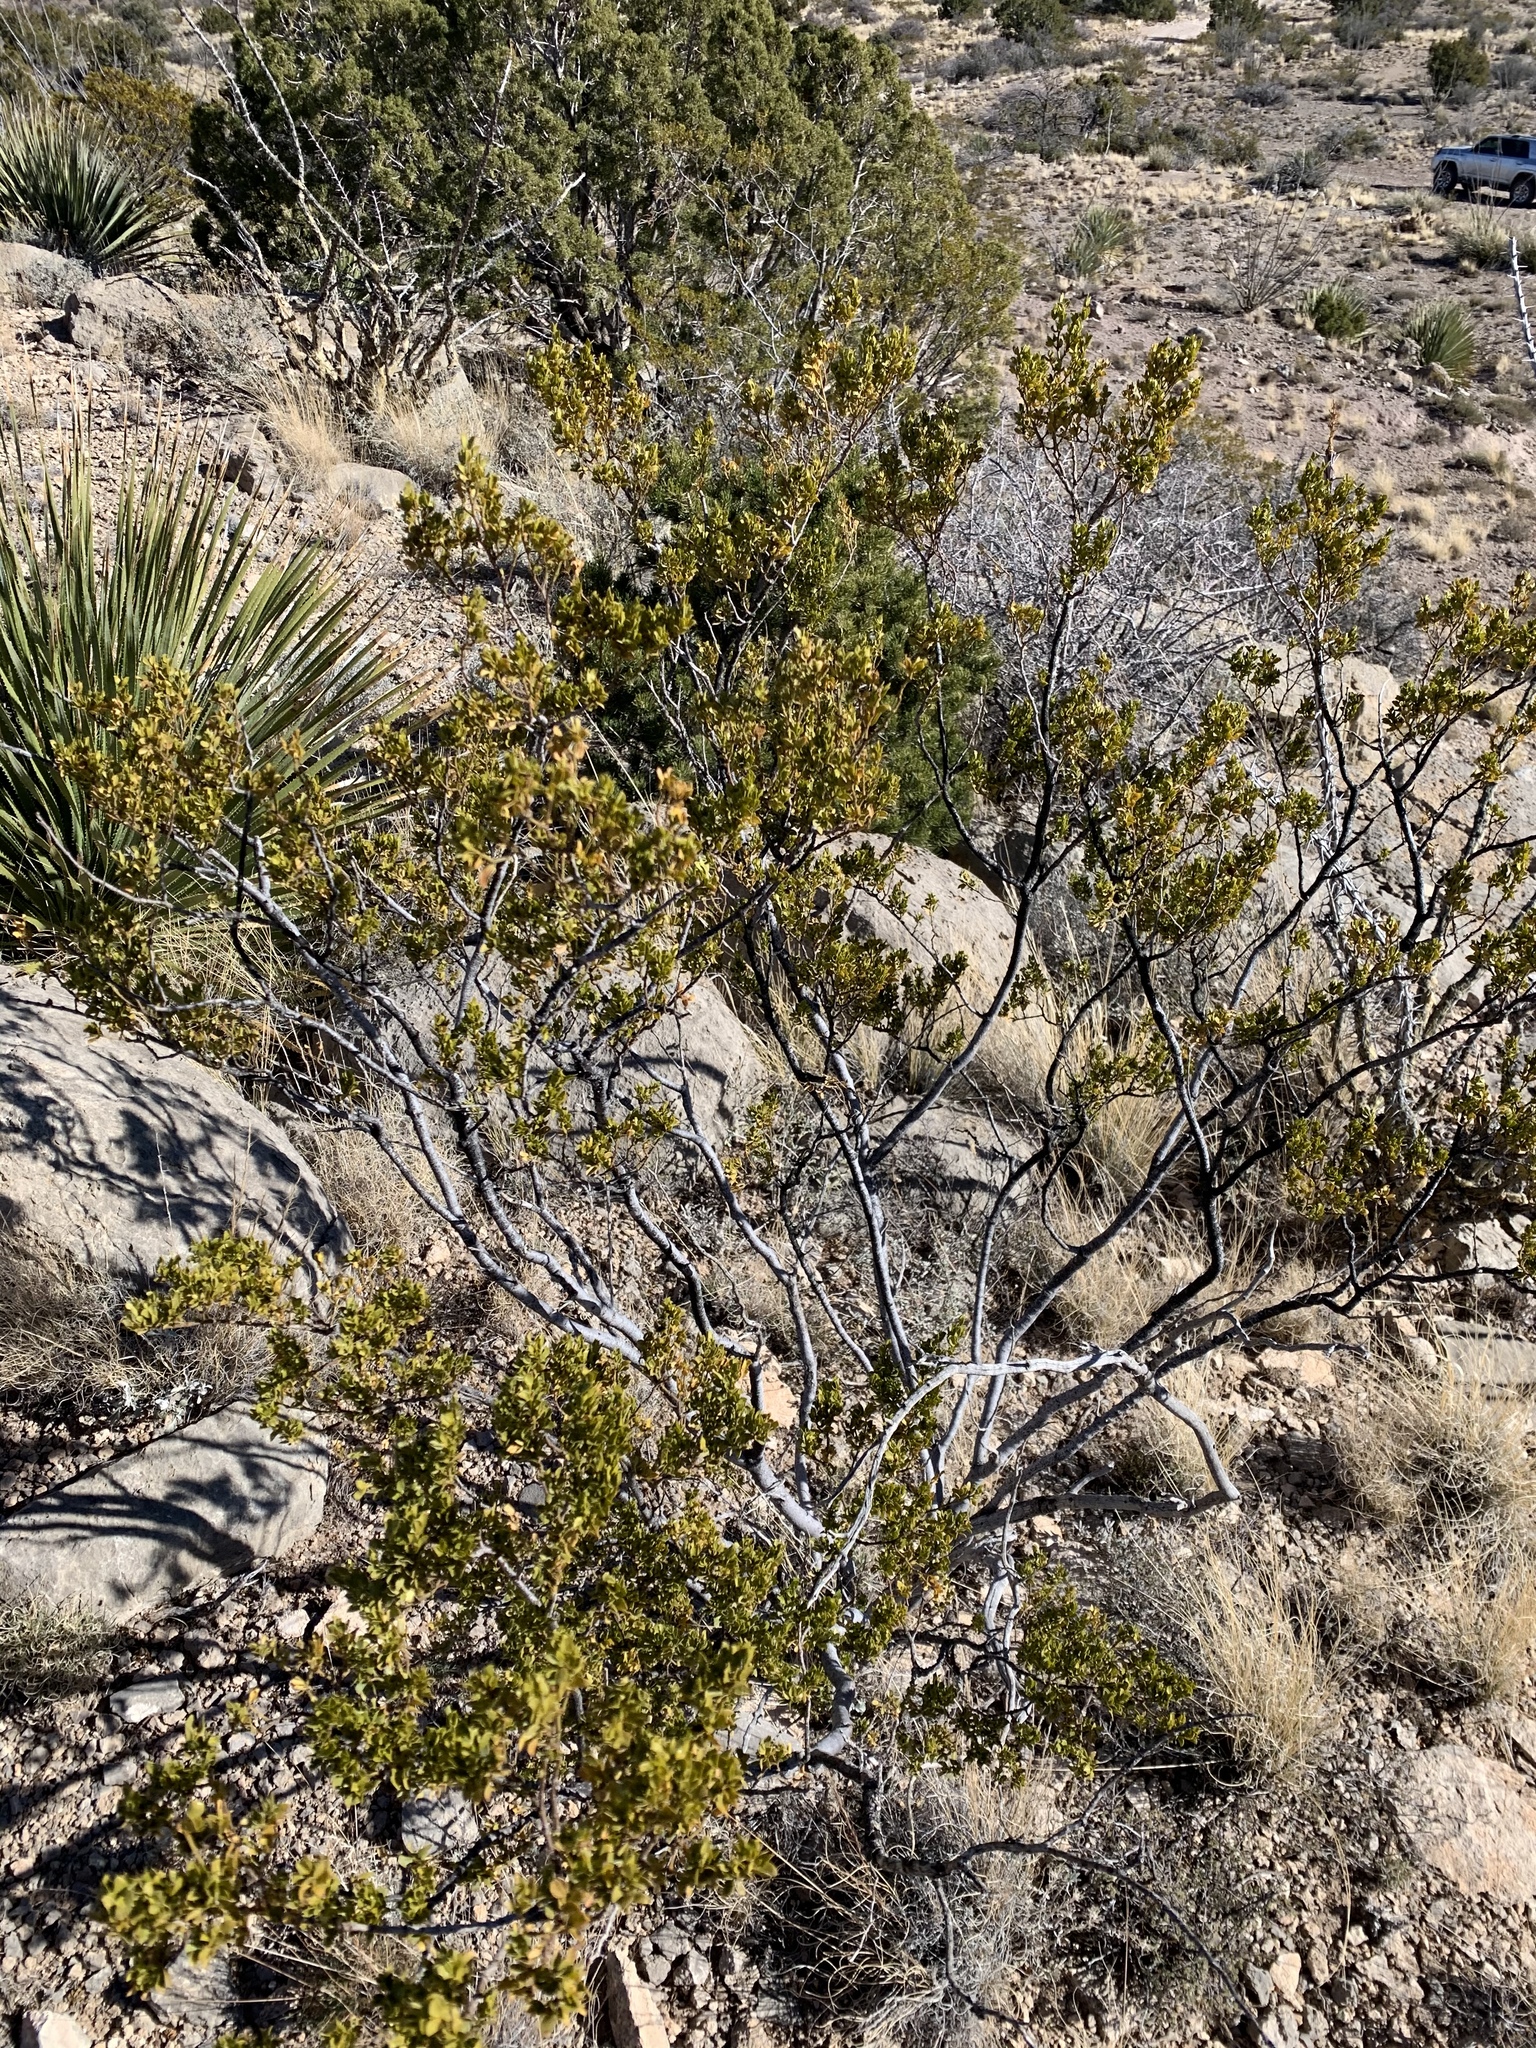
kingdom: Plantae
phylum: Tracheophyta
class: Magnoliopsida
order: Zygophyllales
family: Zygophyllaceae
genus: Larrea
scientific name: Larrea tridentata
